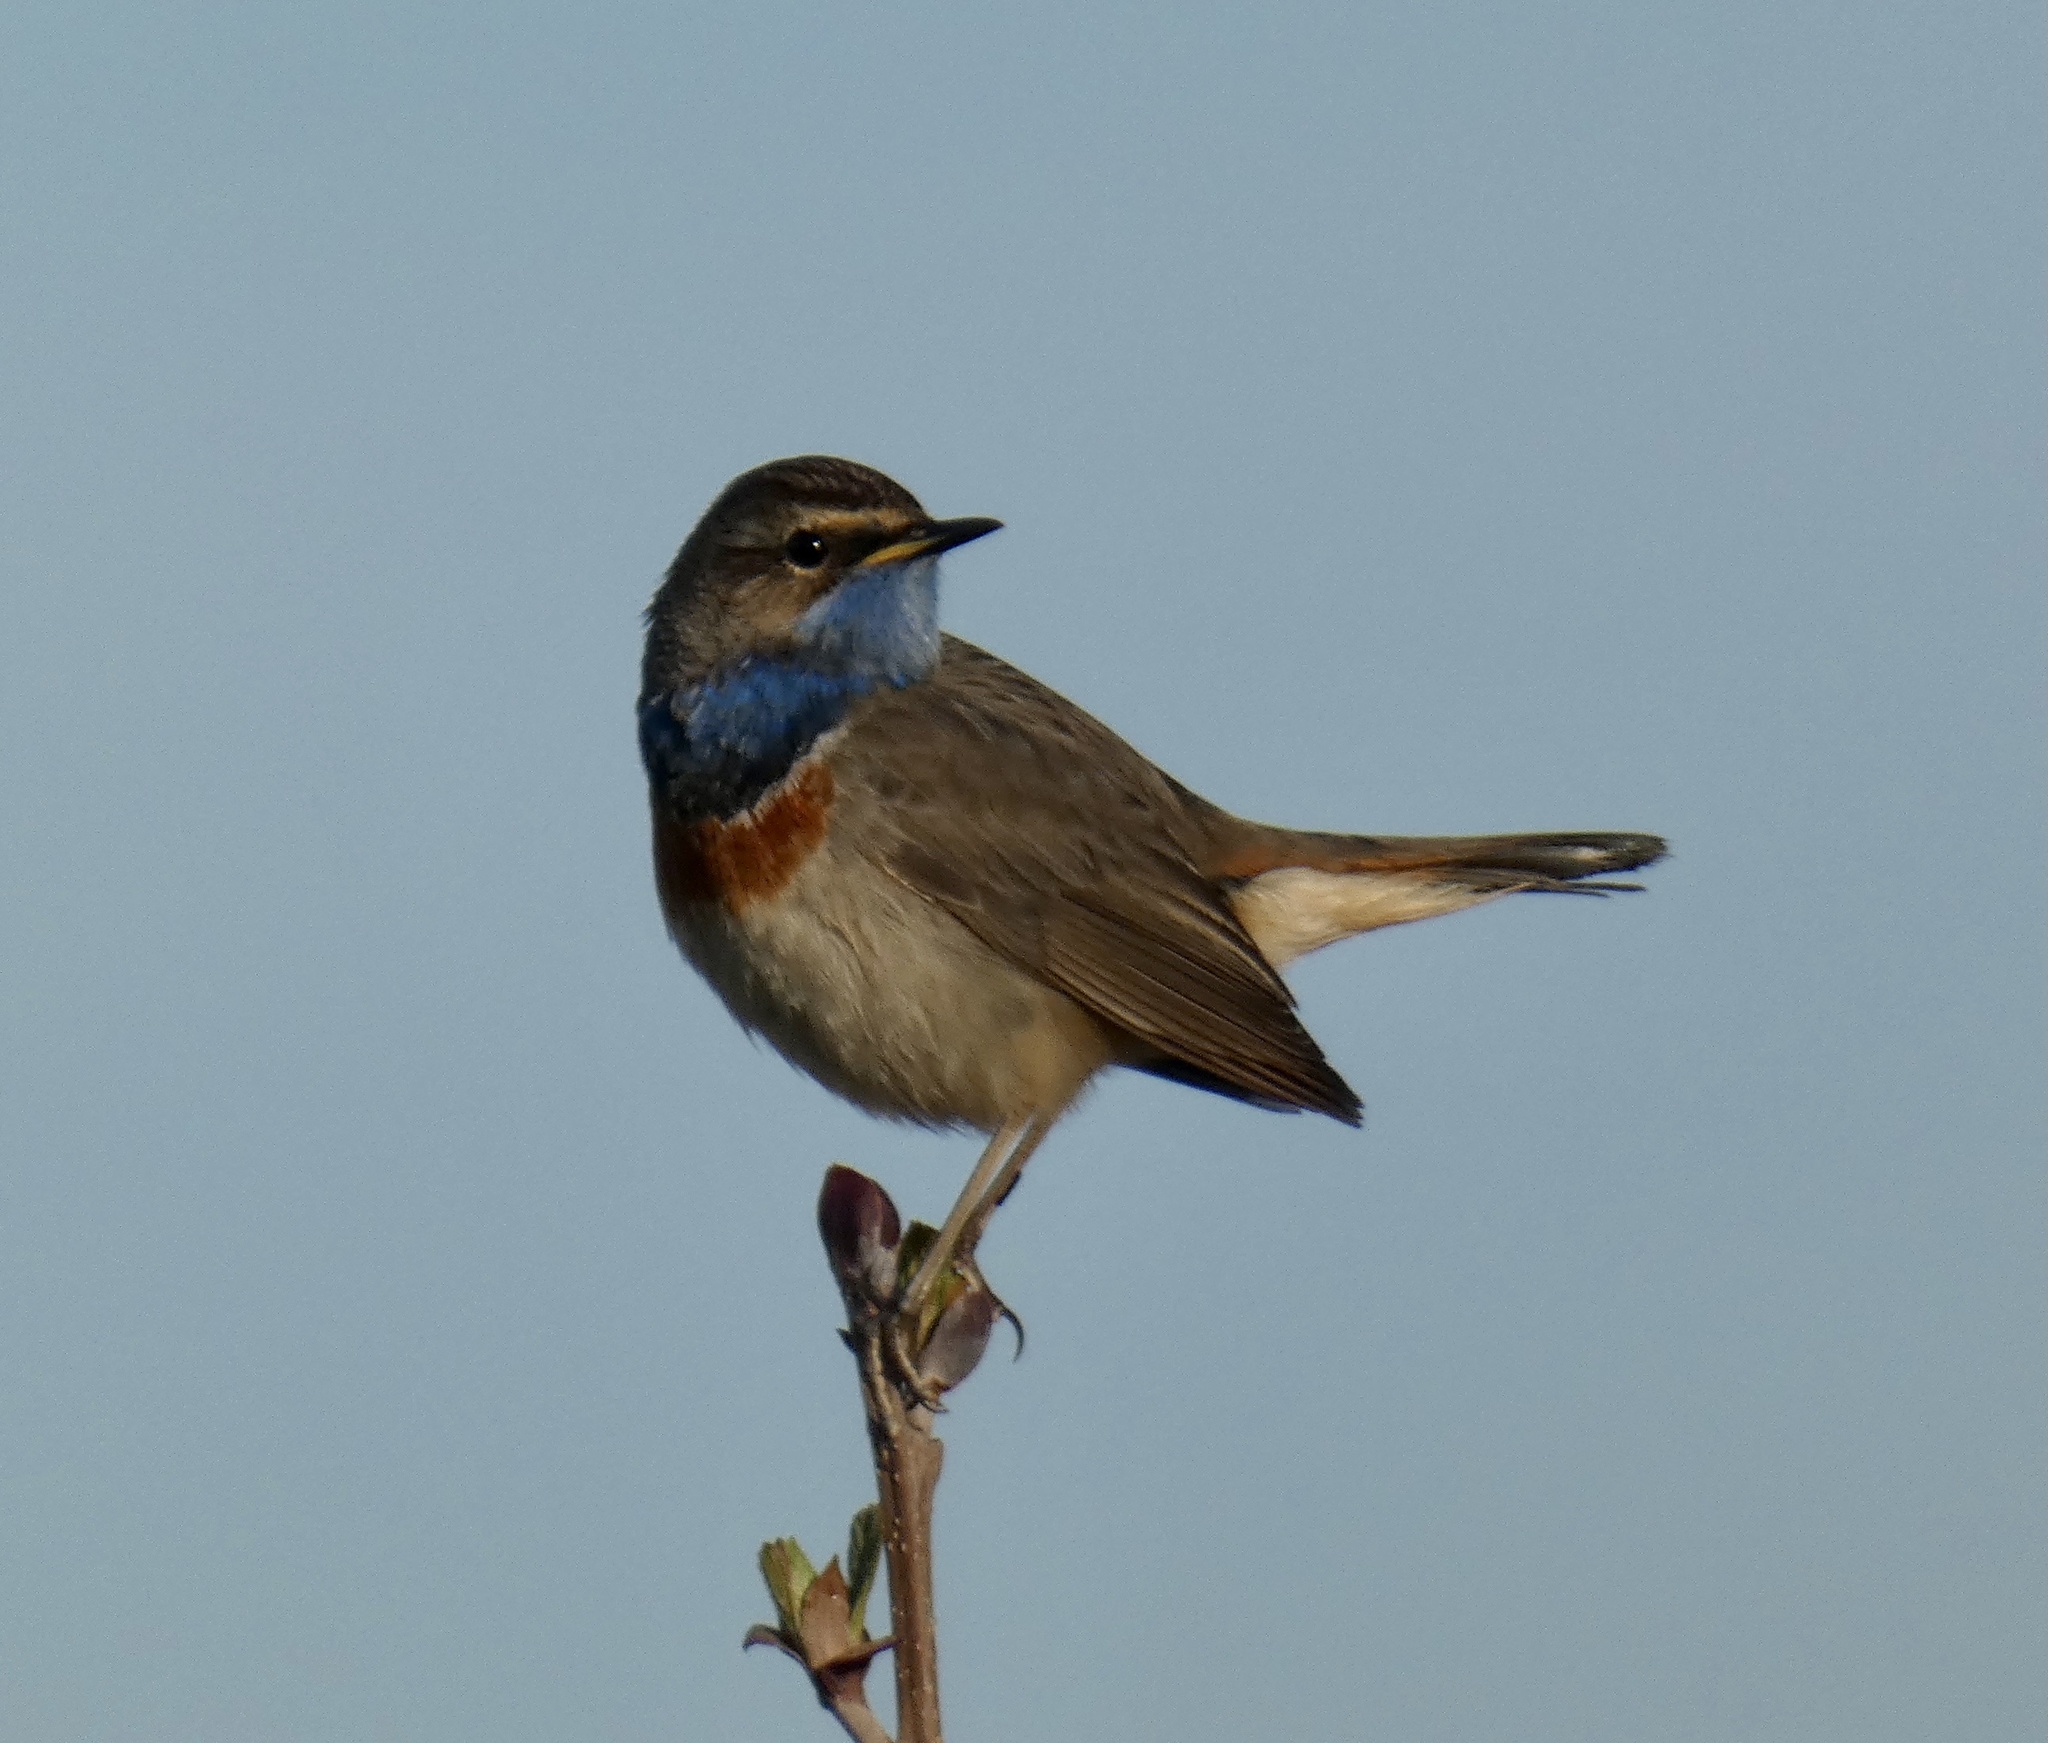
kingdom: Animalia
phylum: Chordata
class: Aves
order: Passeriformes
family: Muscicapidae
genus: Luscinia
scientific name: Luscinia svecica
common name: Bluethroat
